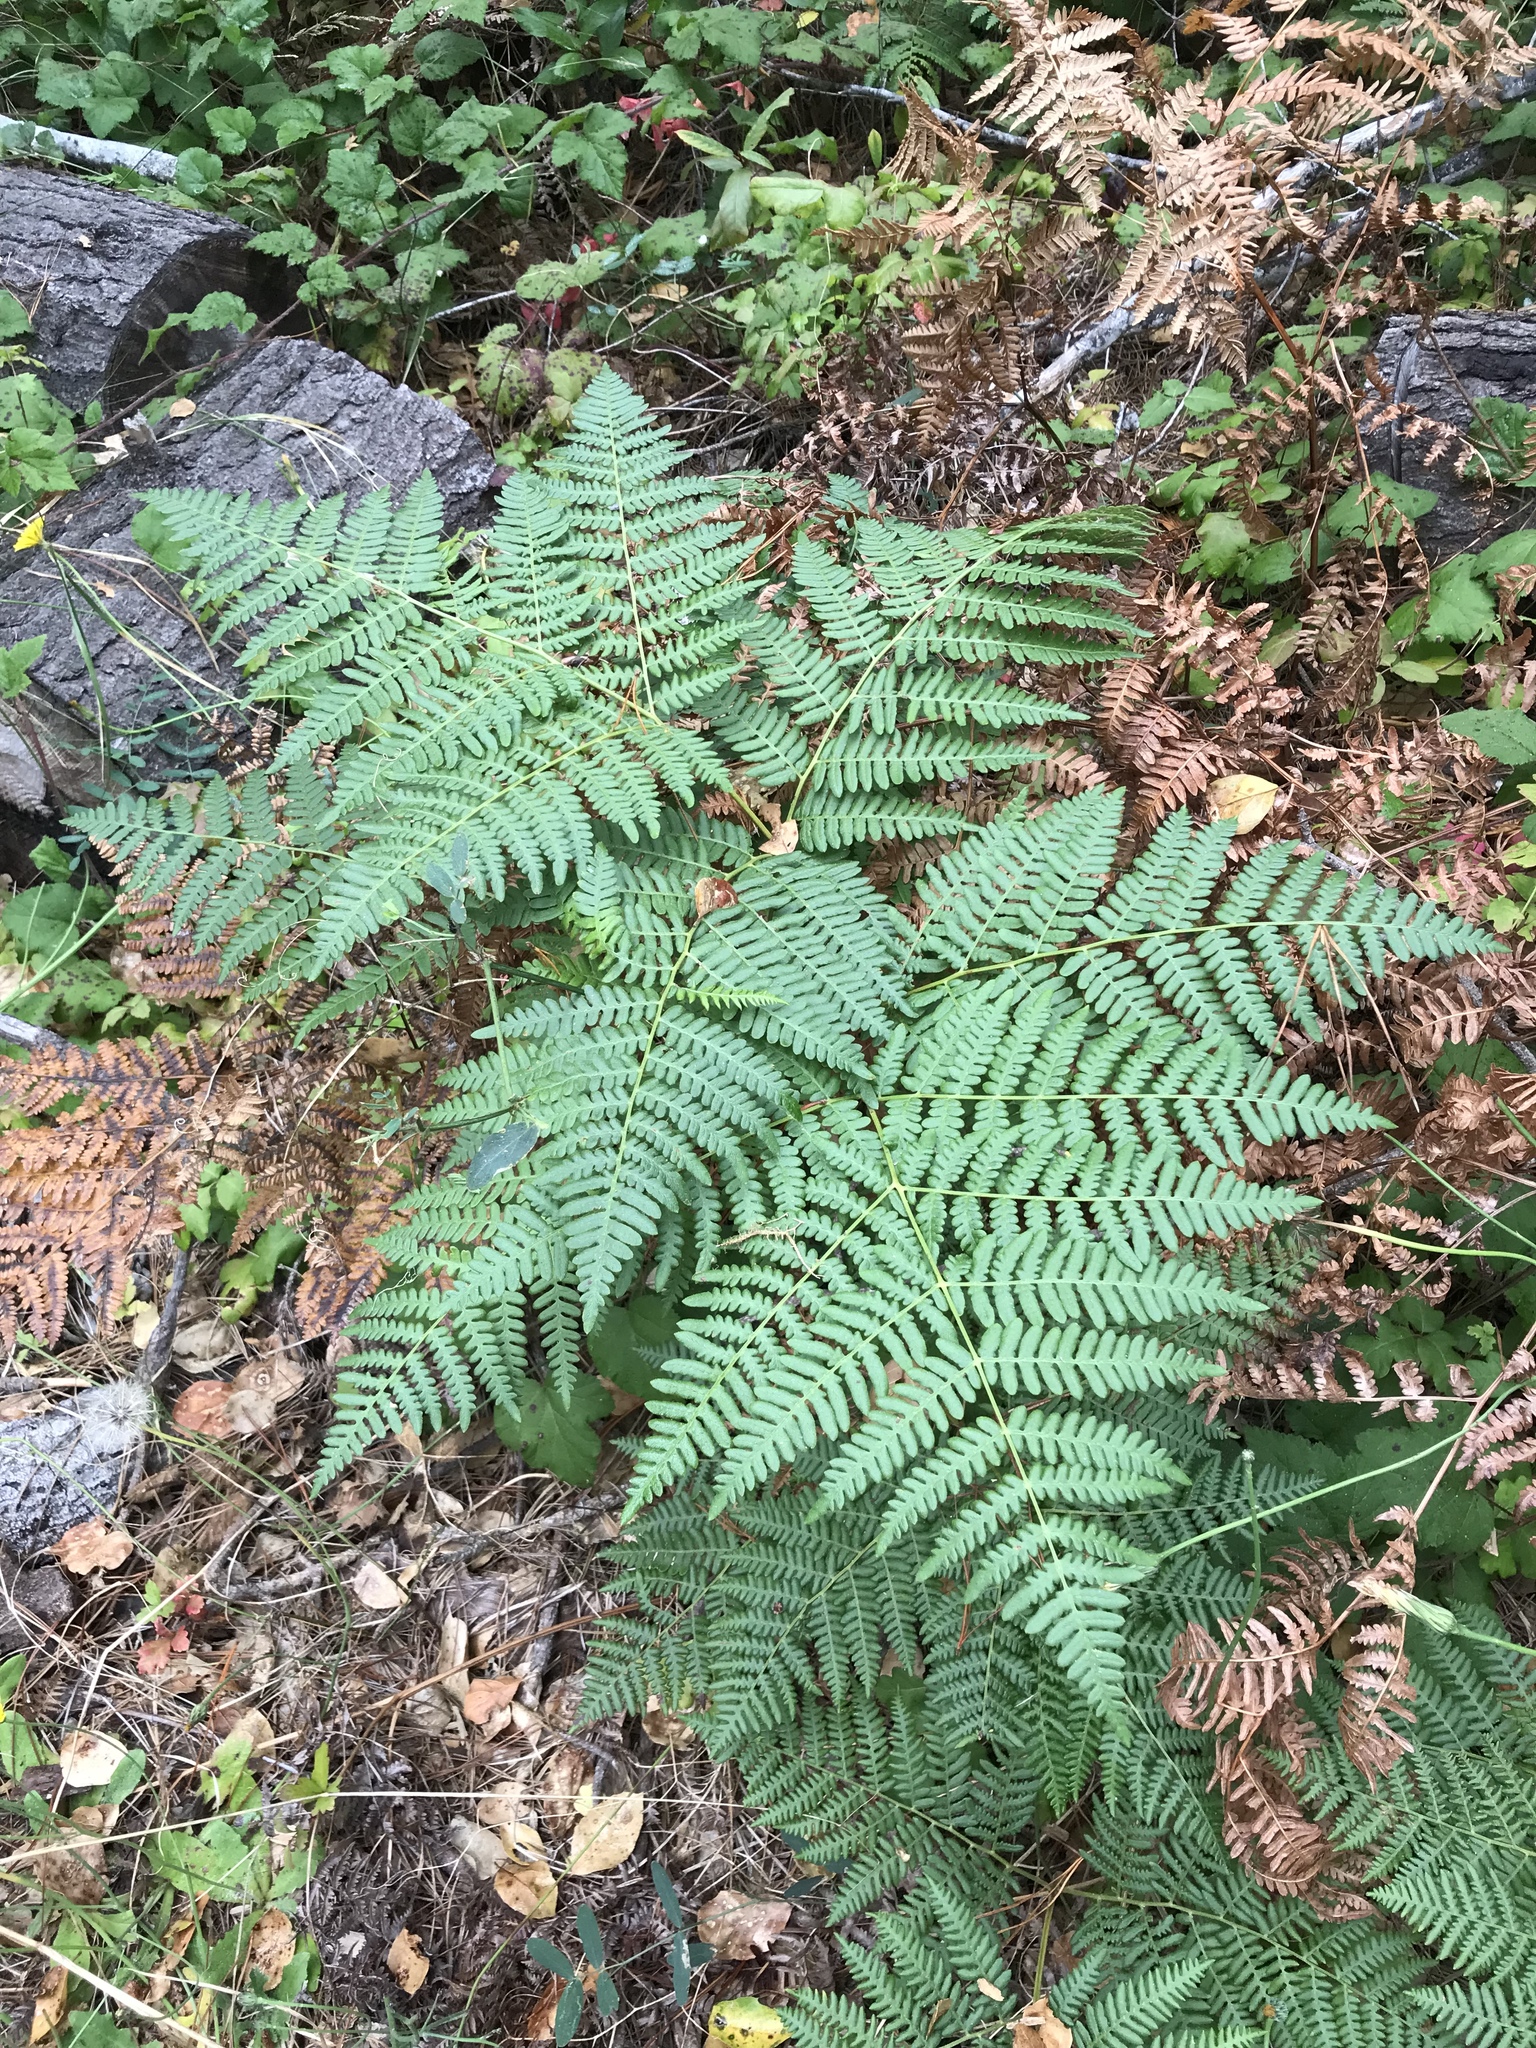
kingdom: Plantae
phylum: Tracheophyta
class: Polypodiopsida
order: Polypodiales
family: Dennstaedtiaceae
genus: Pteridium
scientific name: Pteridium aquilinum
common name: Bracken
